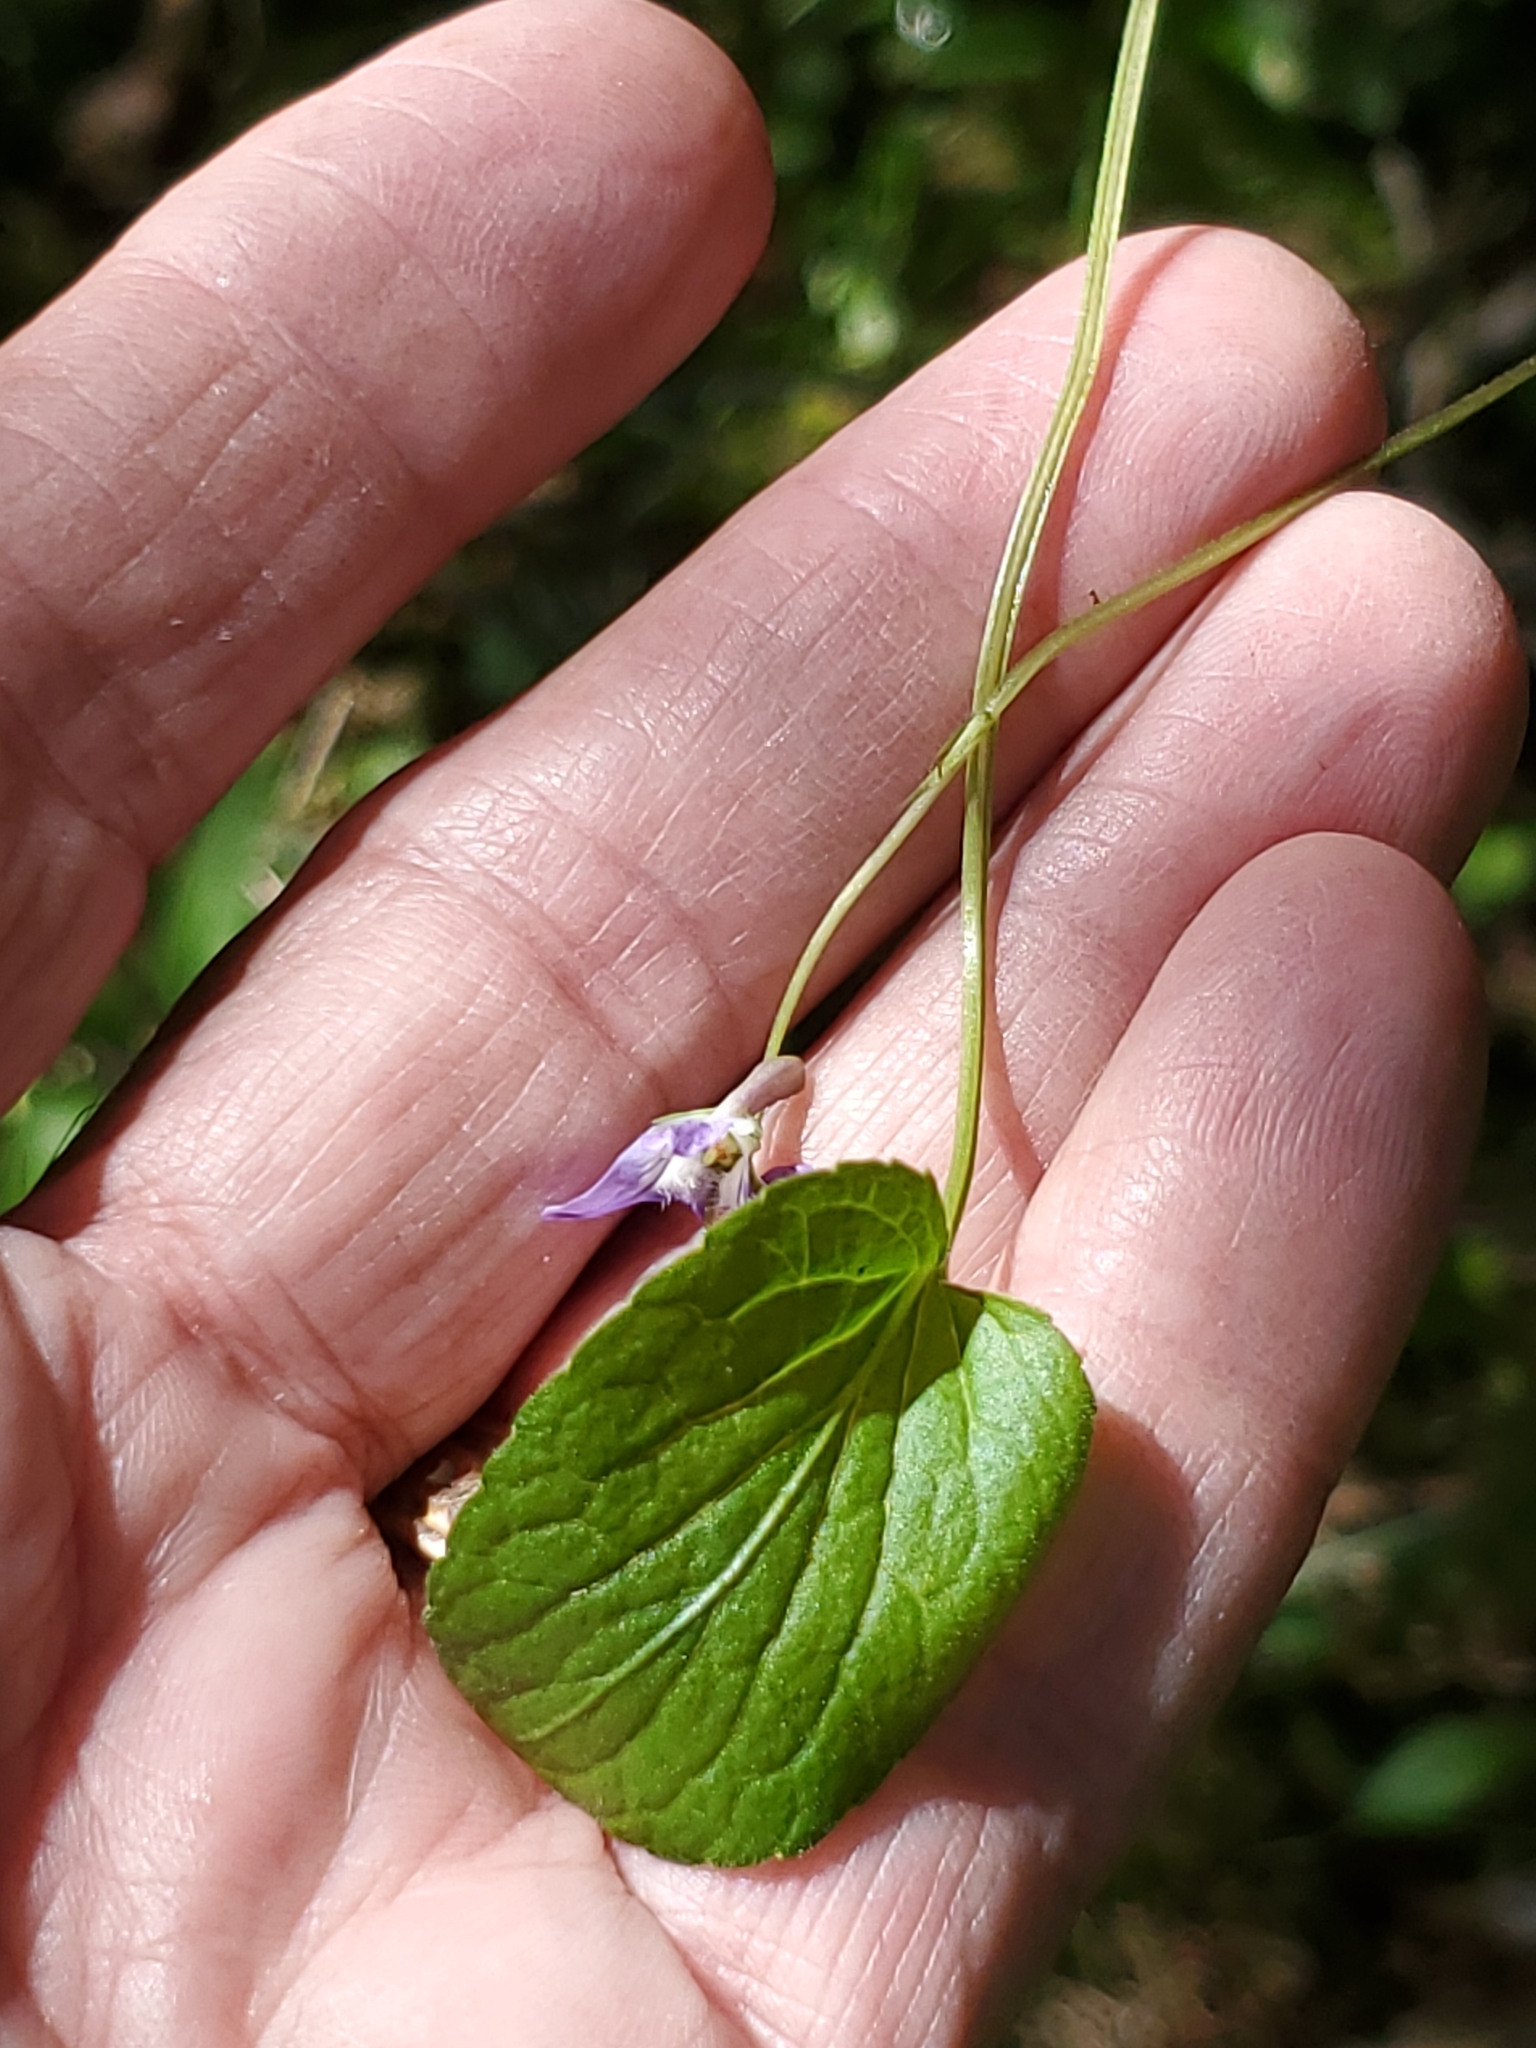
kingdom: Plantae
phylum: Tracheophyta
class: Magnoliopsida
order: Malpighiales
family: Violaceae
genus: Viola
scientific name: Viola adunca
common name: Sand violet
